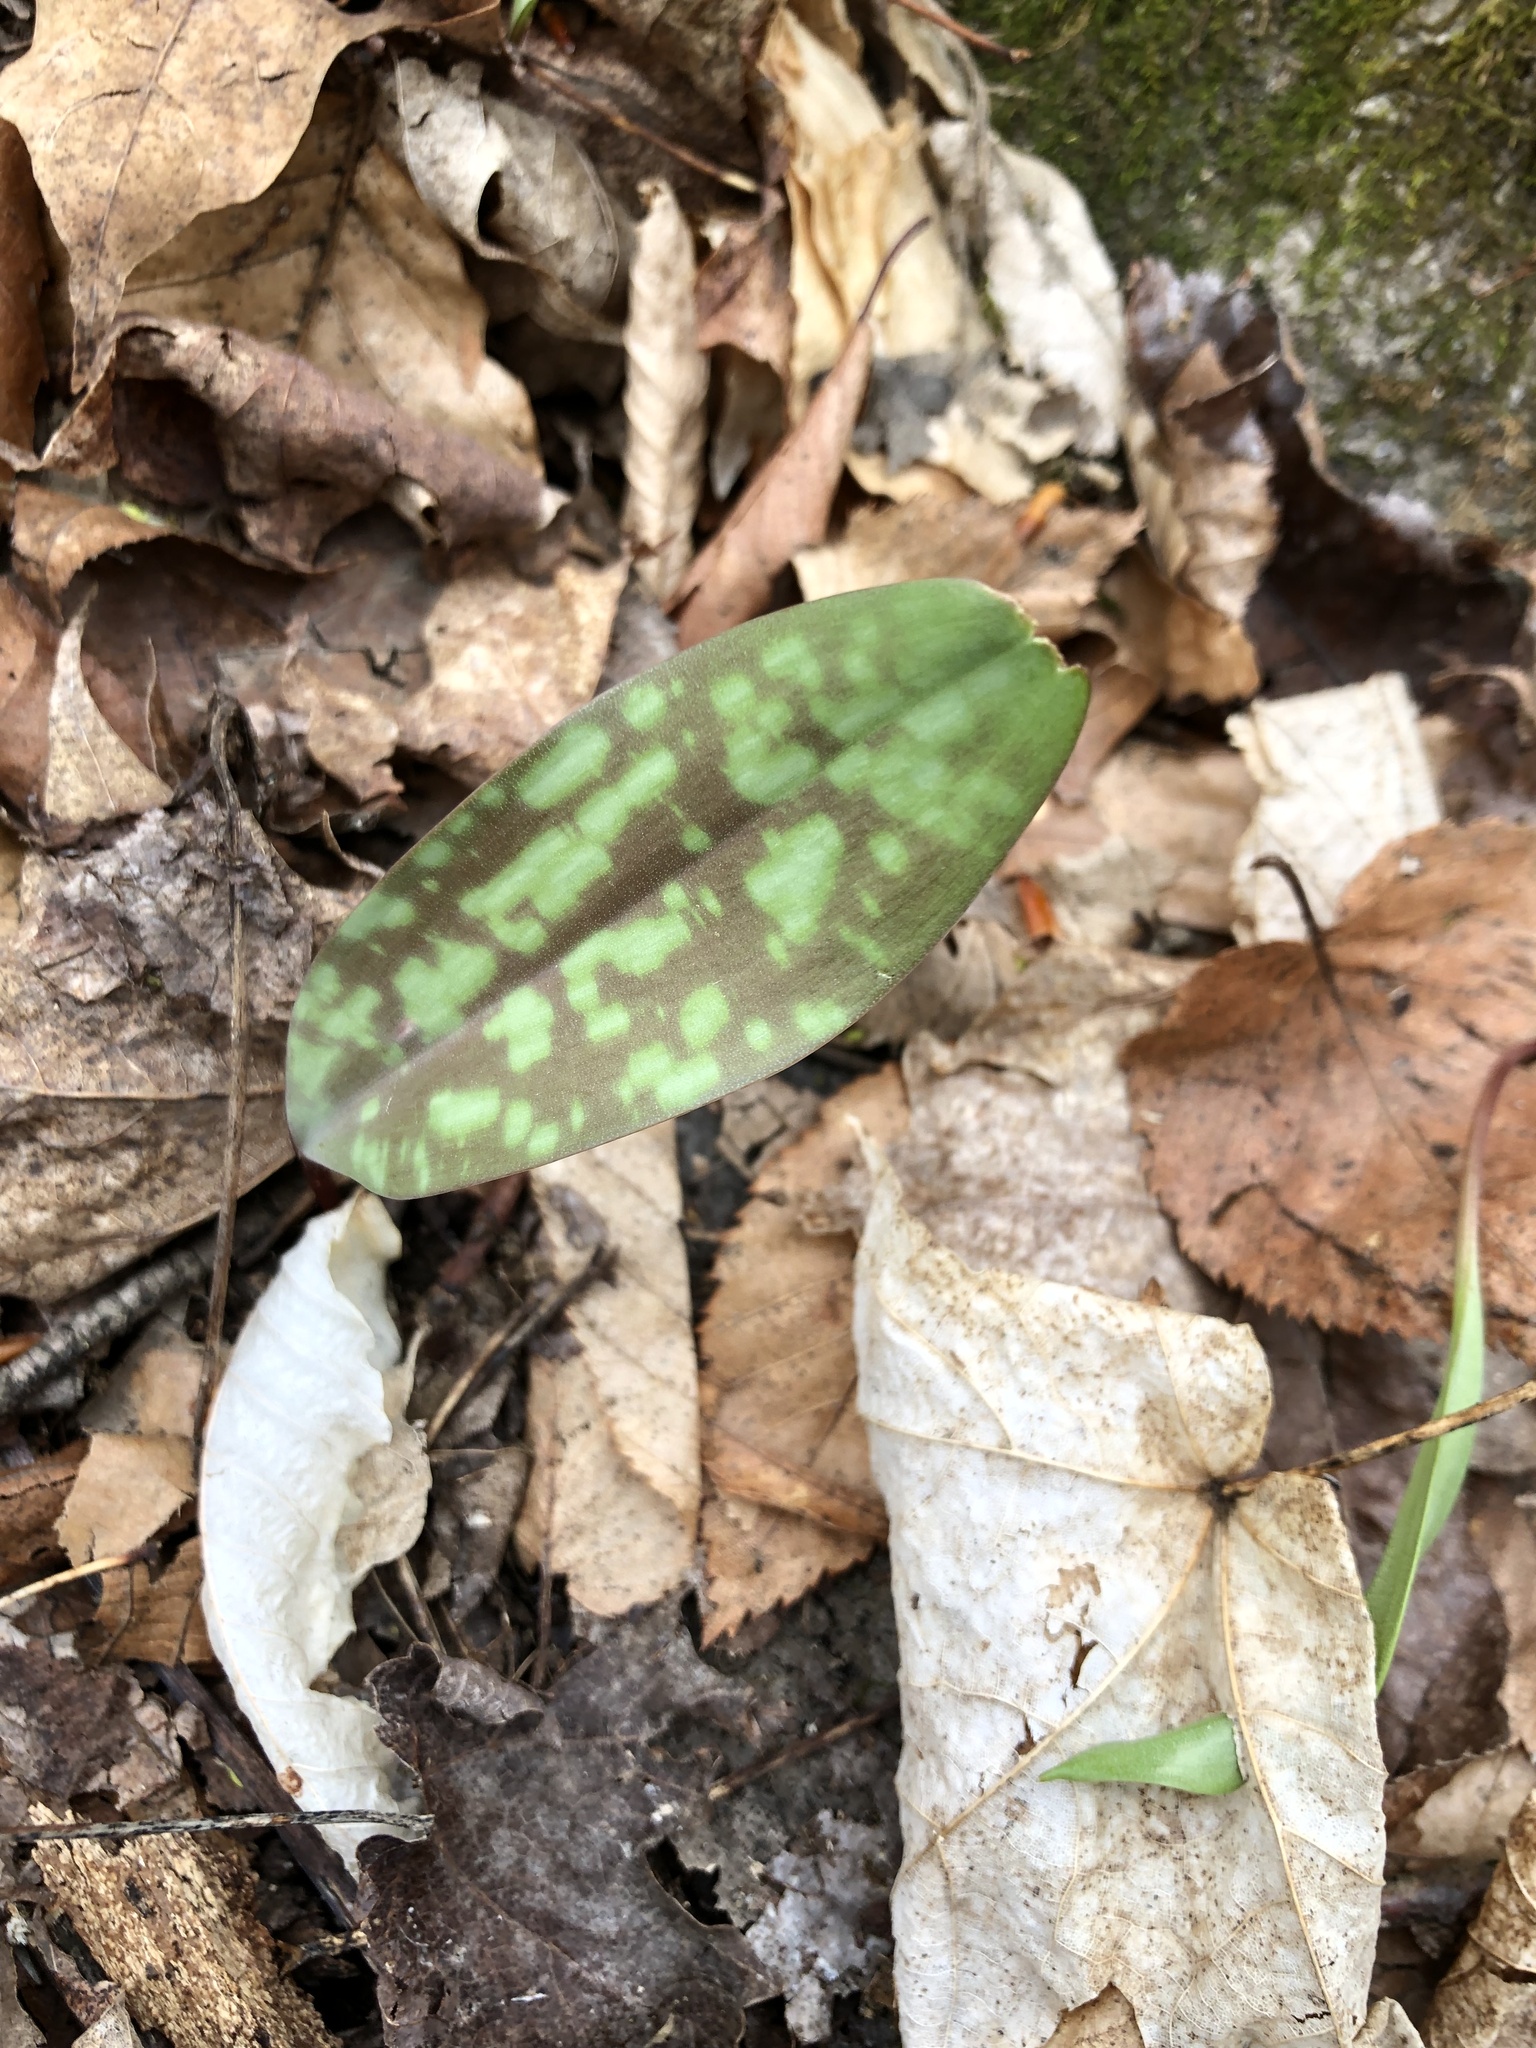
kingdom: Plantae
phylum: Tracheophyta
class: Liliopsida
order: Liliales
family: Liliaceae
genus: Erythronium
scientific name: Erythronium americanum
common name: Yellow adder's-tongue
